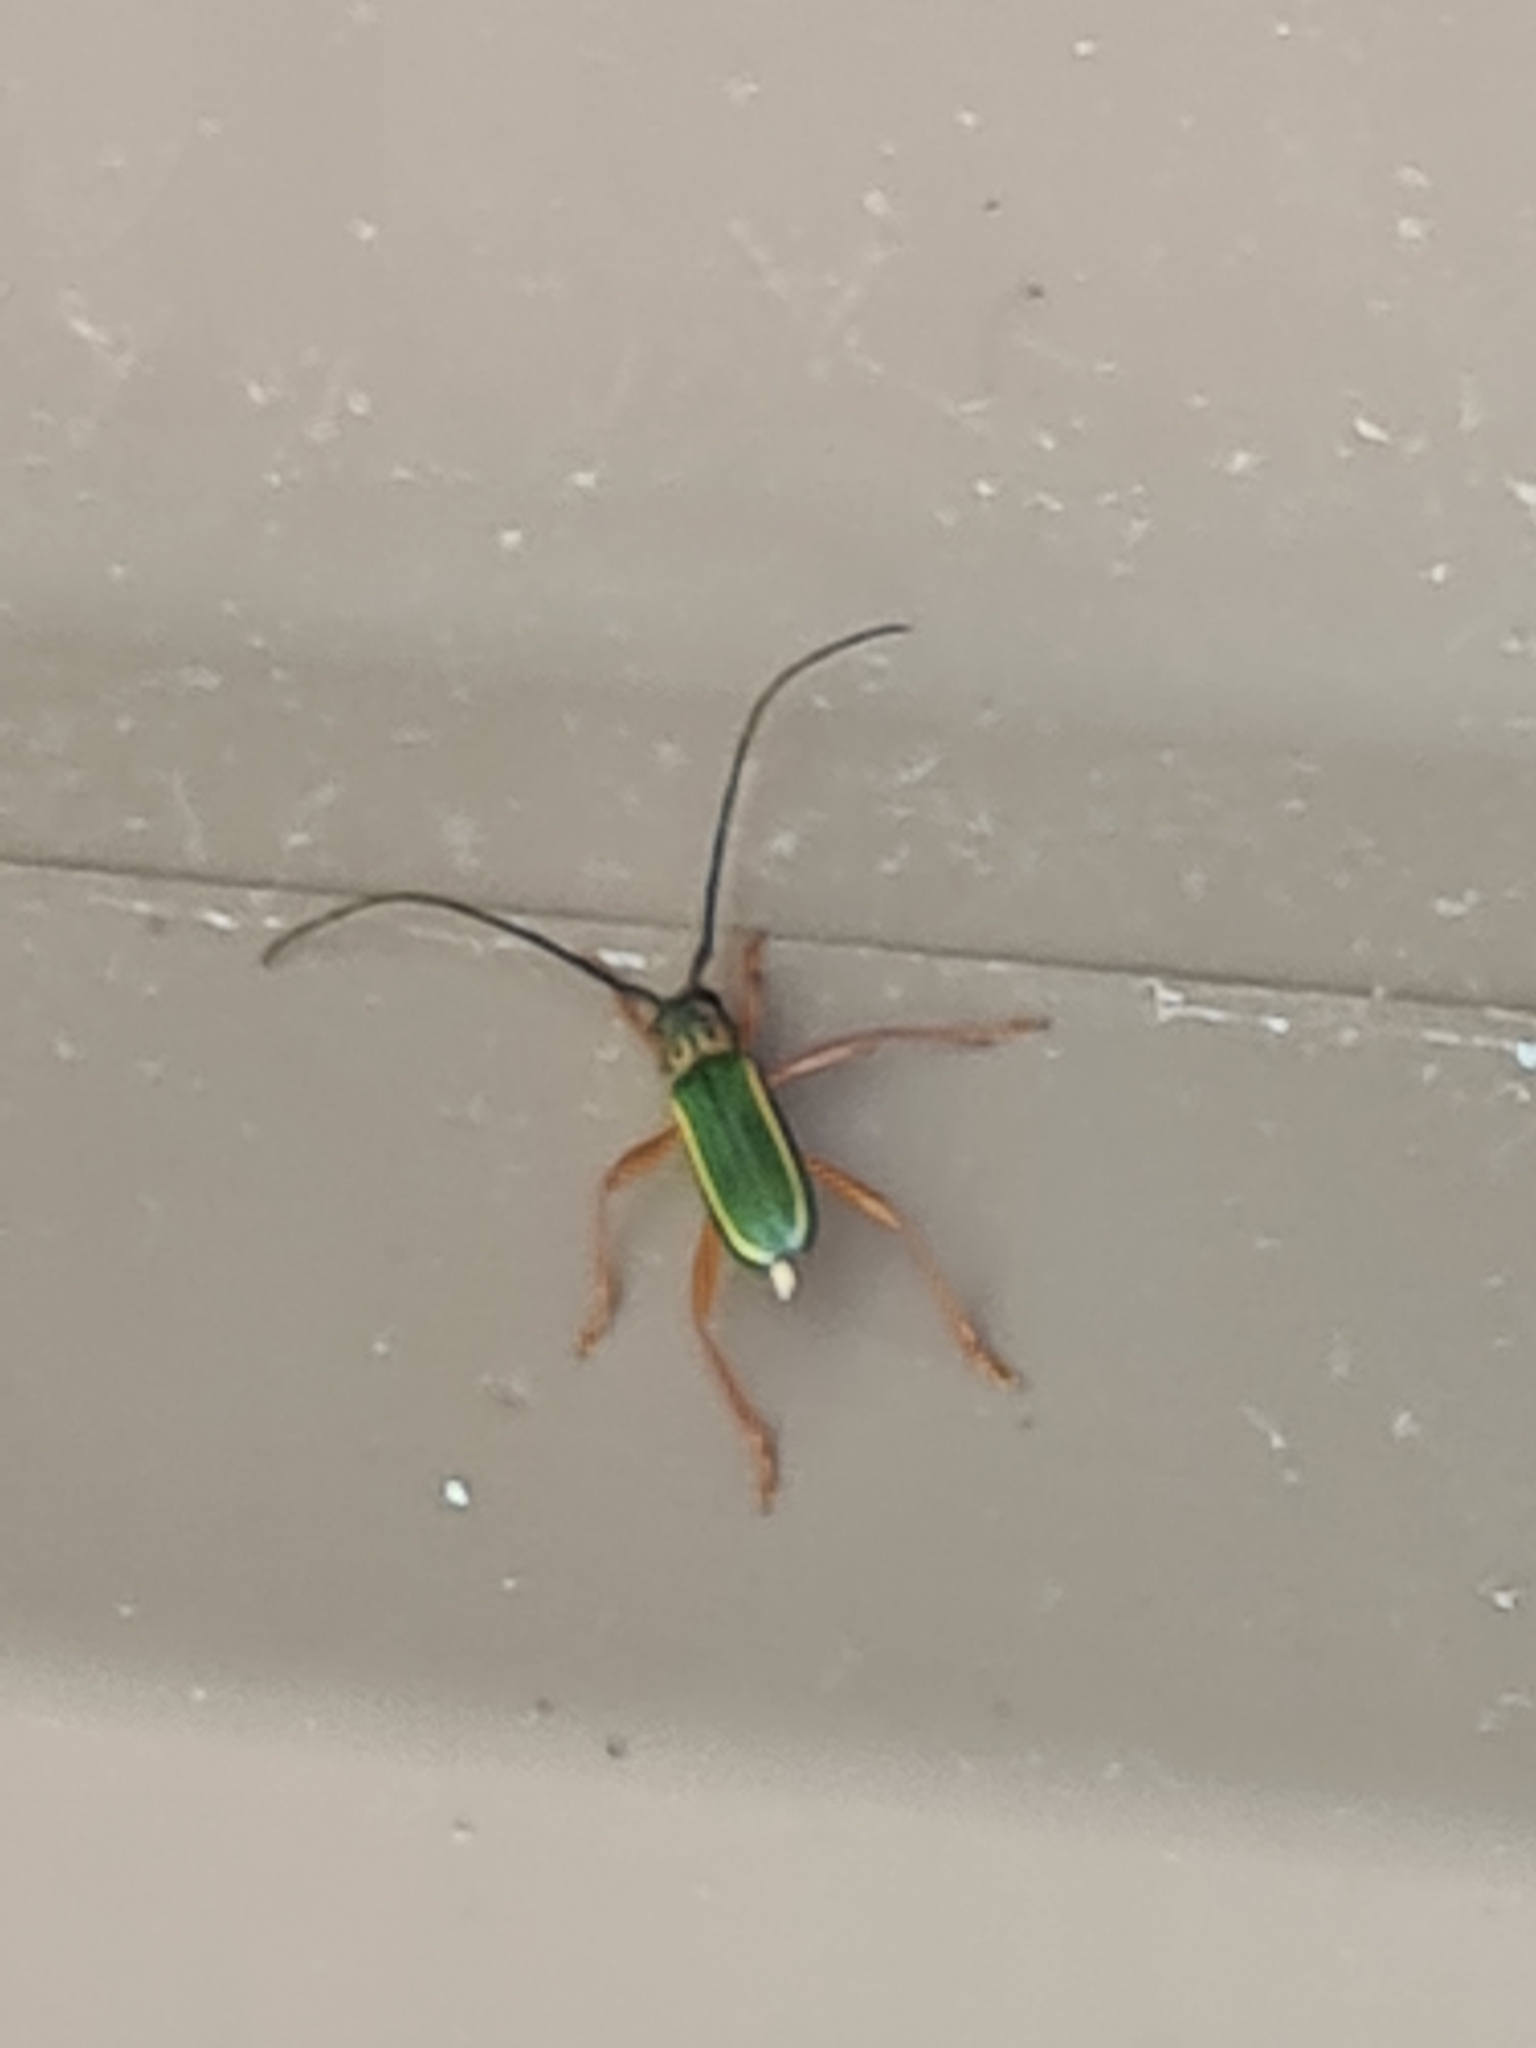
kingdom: Animalia
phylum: Arthropoda
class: Insecta
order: Coleoptera
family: Cerambycidae
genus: Chlorida
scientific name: Chlorida festiva
